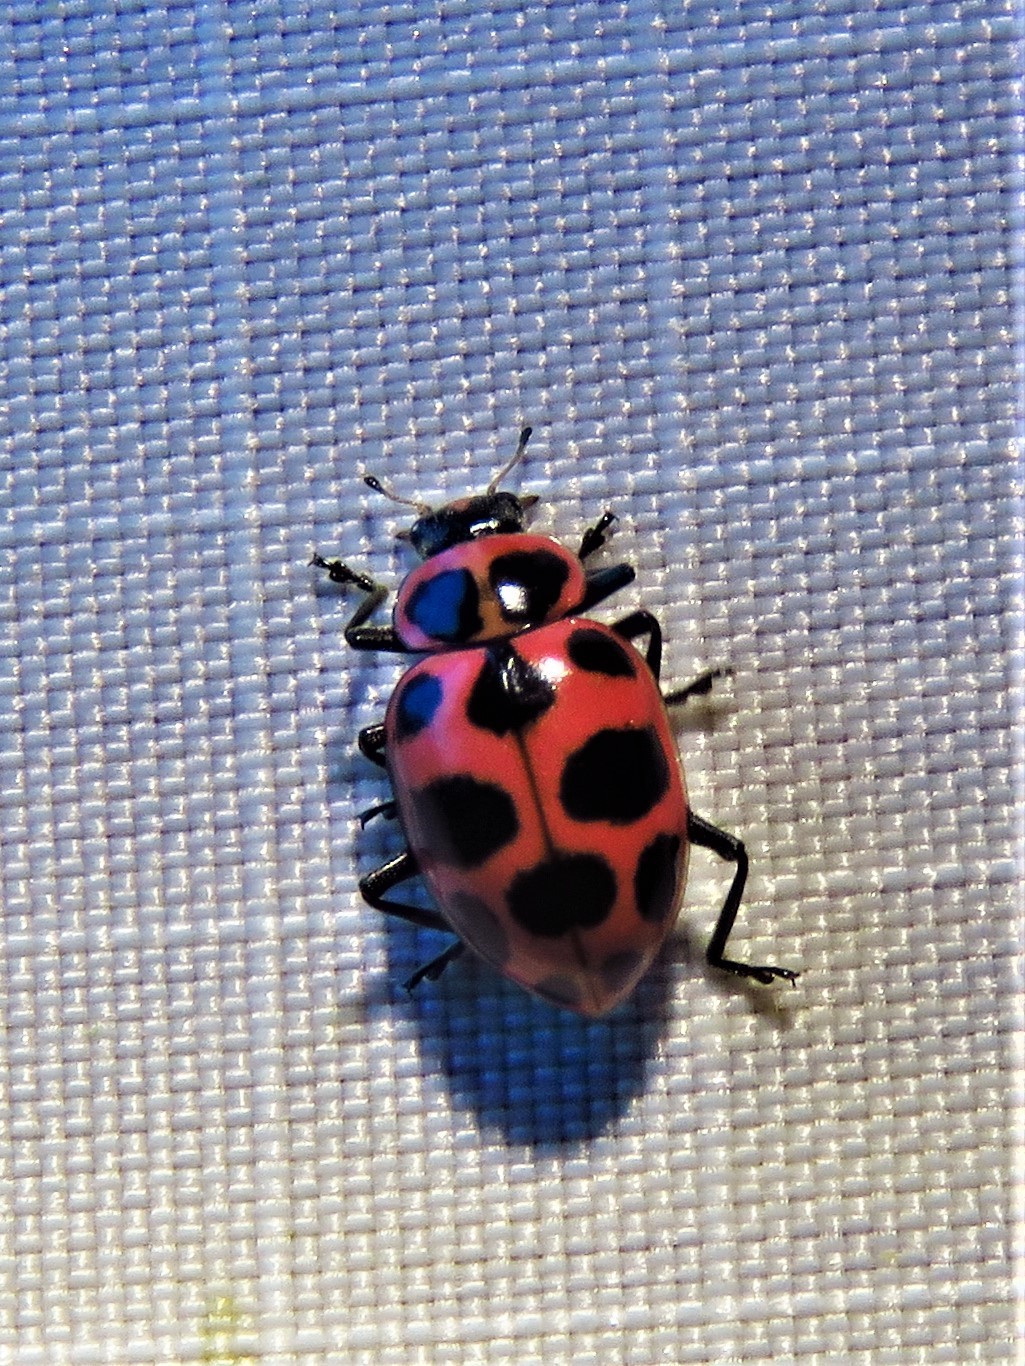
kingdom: Animalia
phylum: Arthropoda
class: Insecta
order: Coleoptera
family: Coccinellidae
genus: Coleomegilla
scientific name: Coleomegilla maculata
